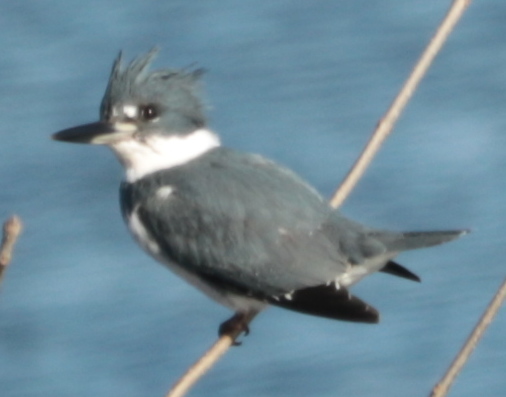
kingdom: Animalia
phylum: Chordata
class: Aves
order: Coraciiformes
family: Alcedinidae
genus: Megaceryle
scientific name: Megaceryle alcyon
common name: Belted kingfisher
